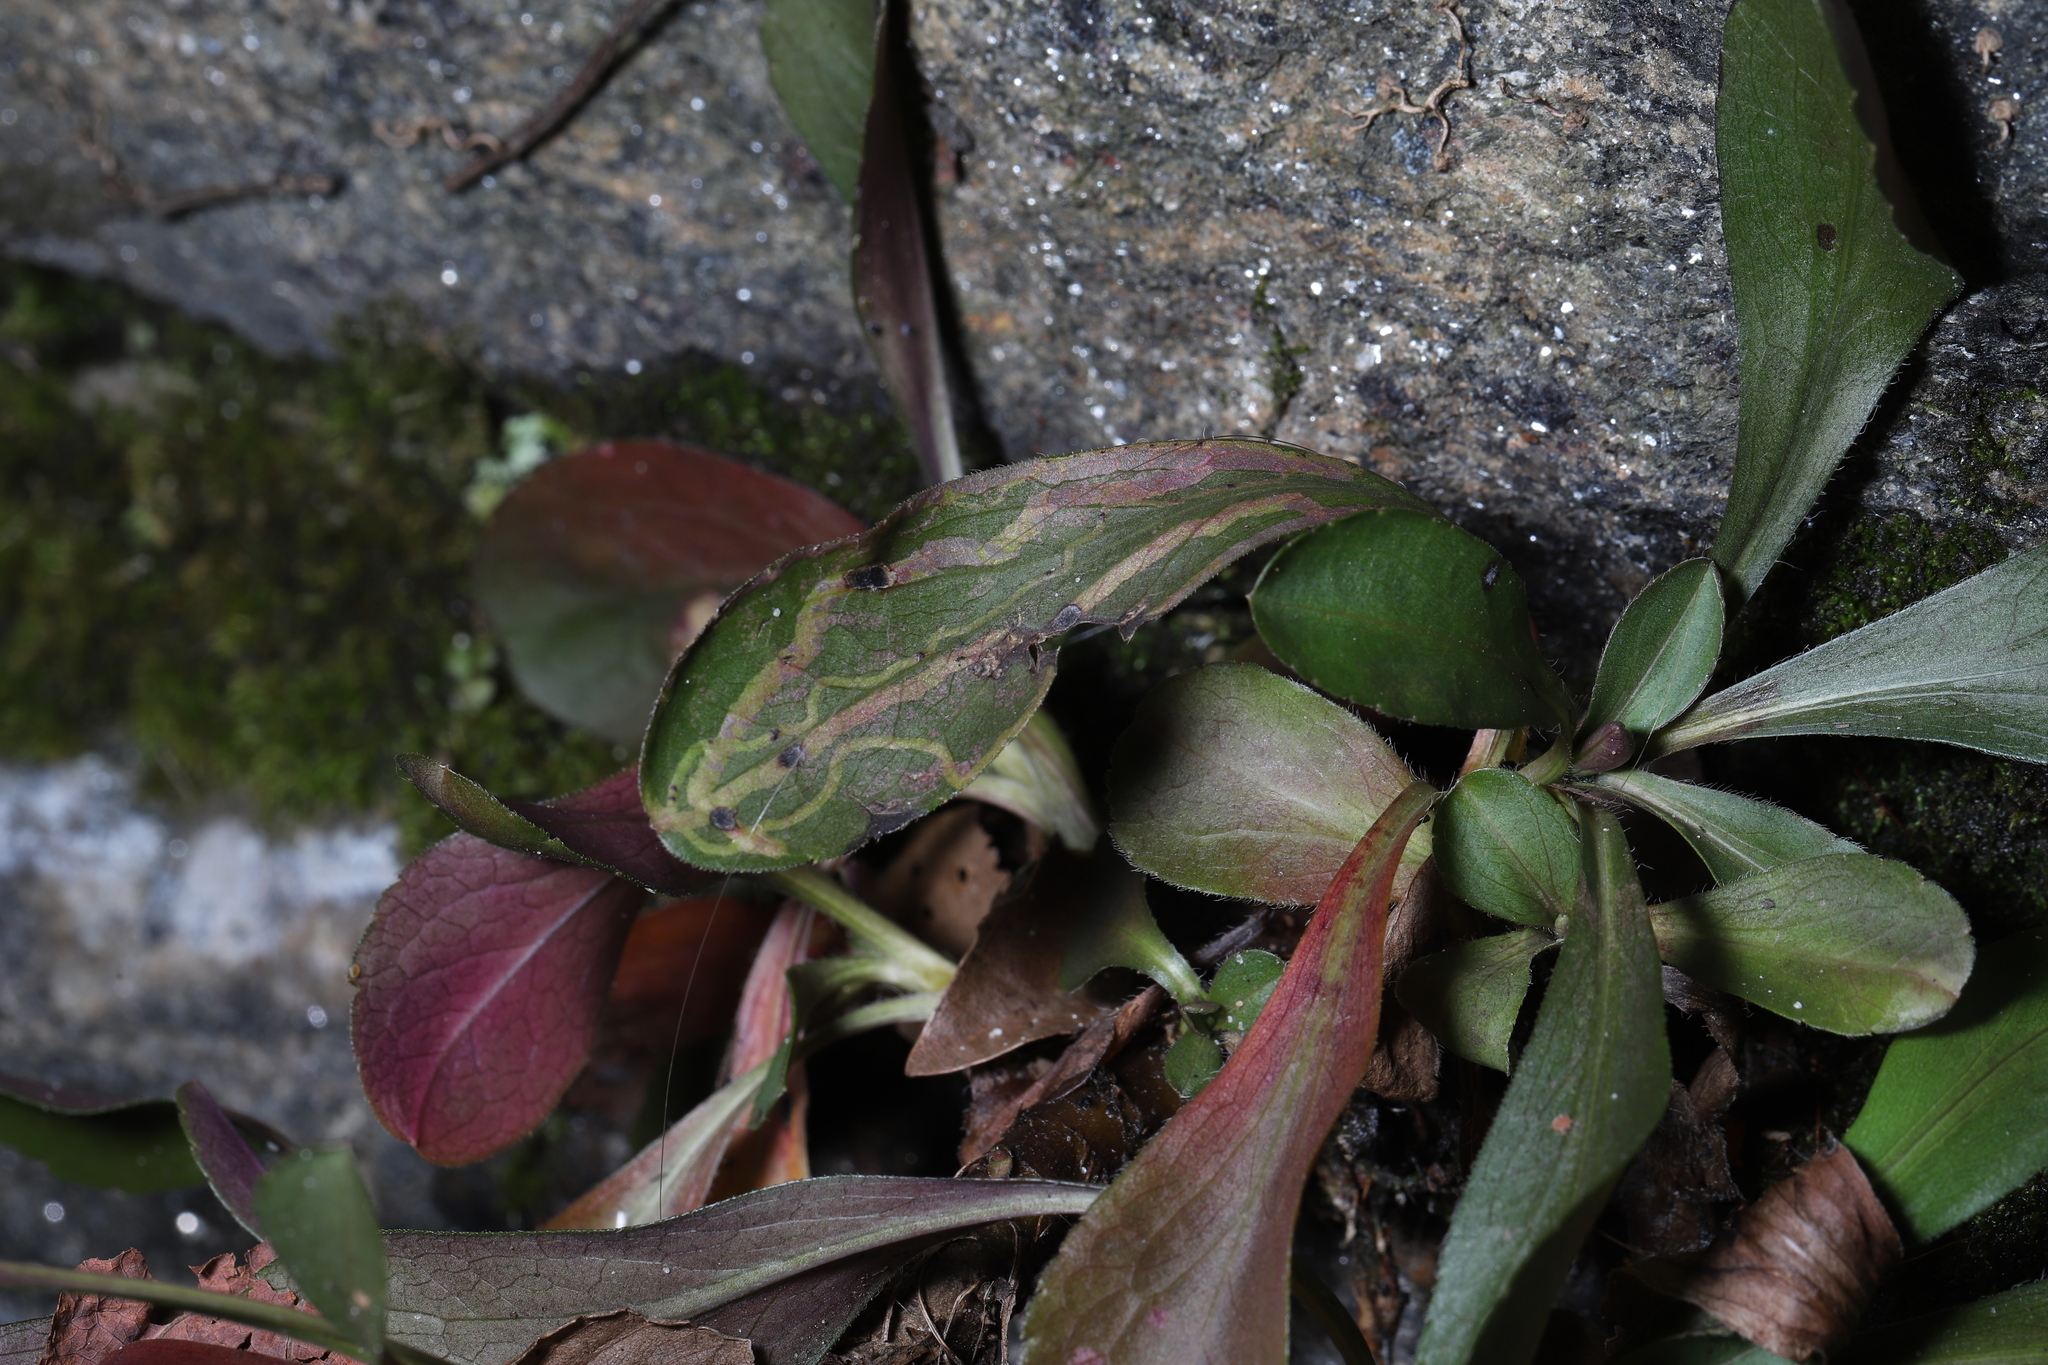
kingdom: Animalia
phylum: Arthropoda
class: Insecta
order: Diptera
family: Agromyzidae
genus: Ophiomyia
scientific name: Ophiomyia parda
